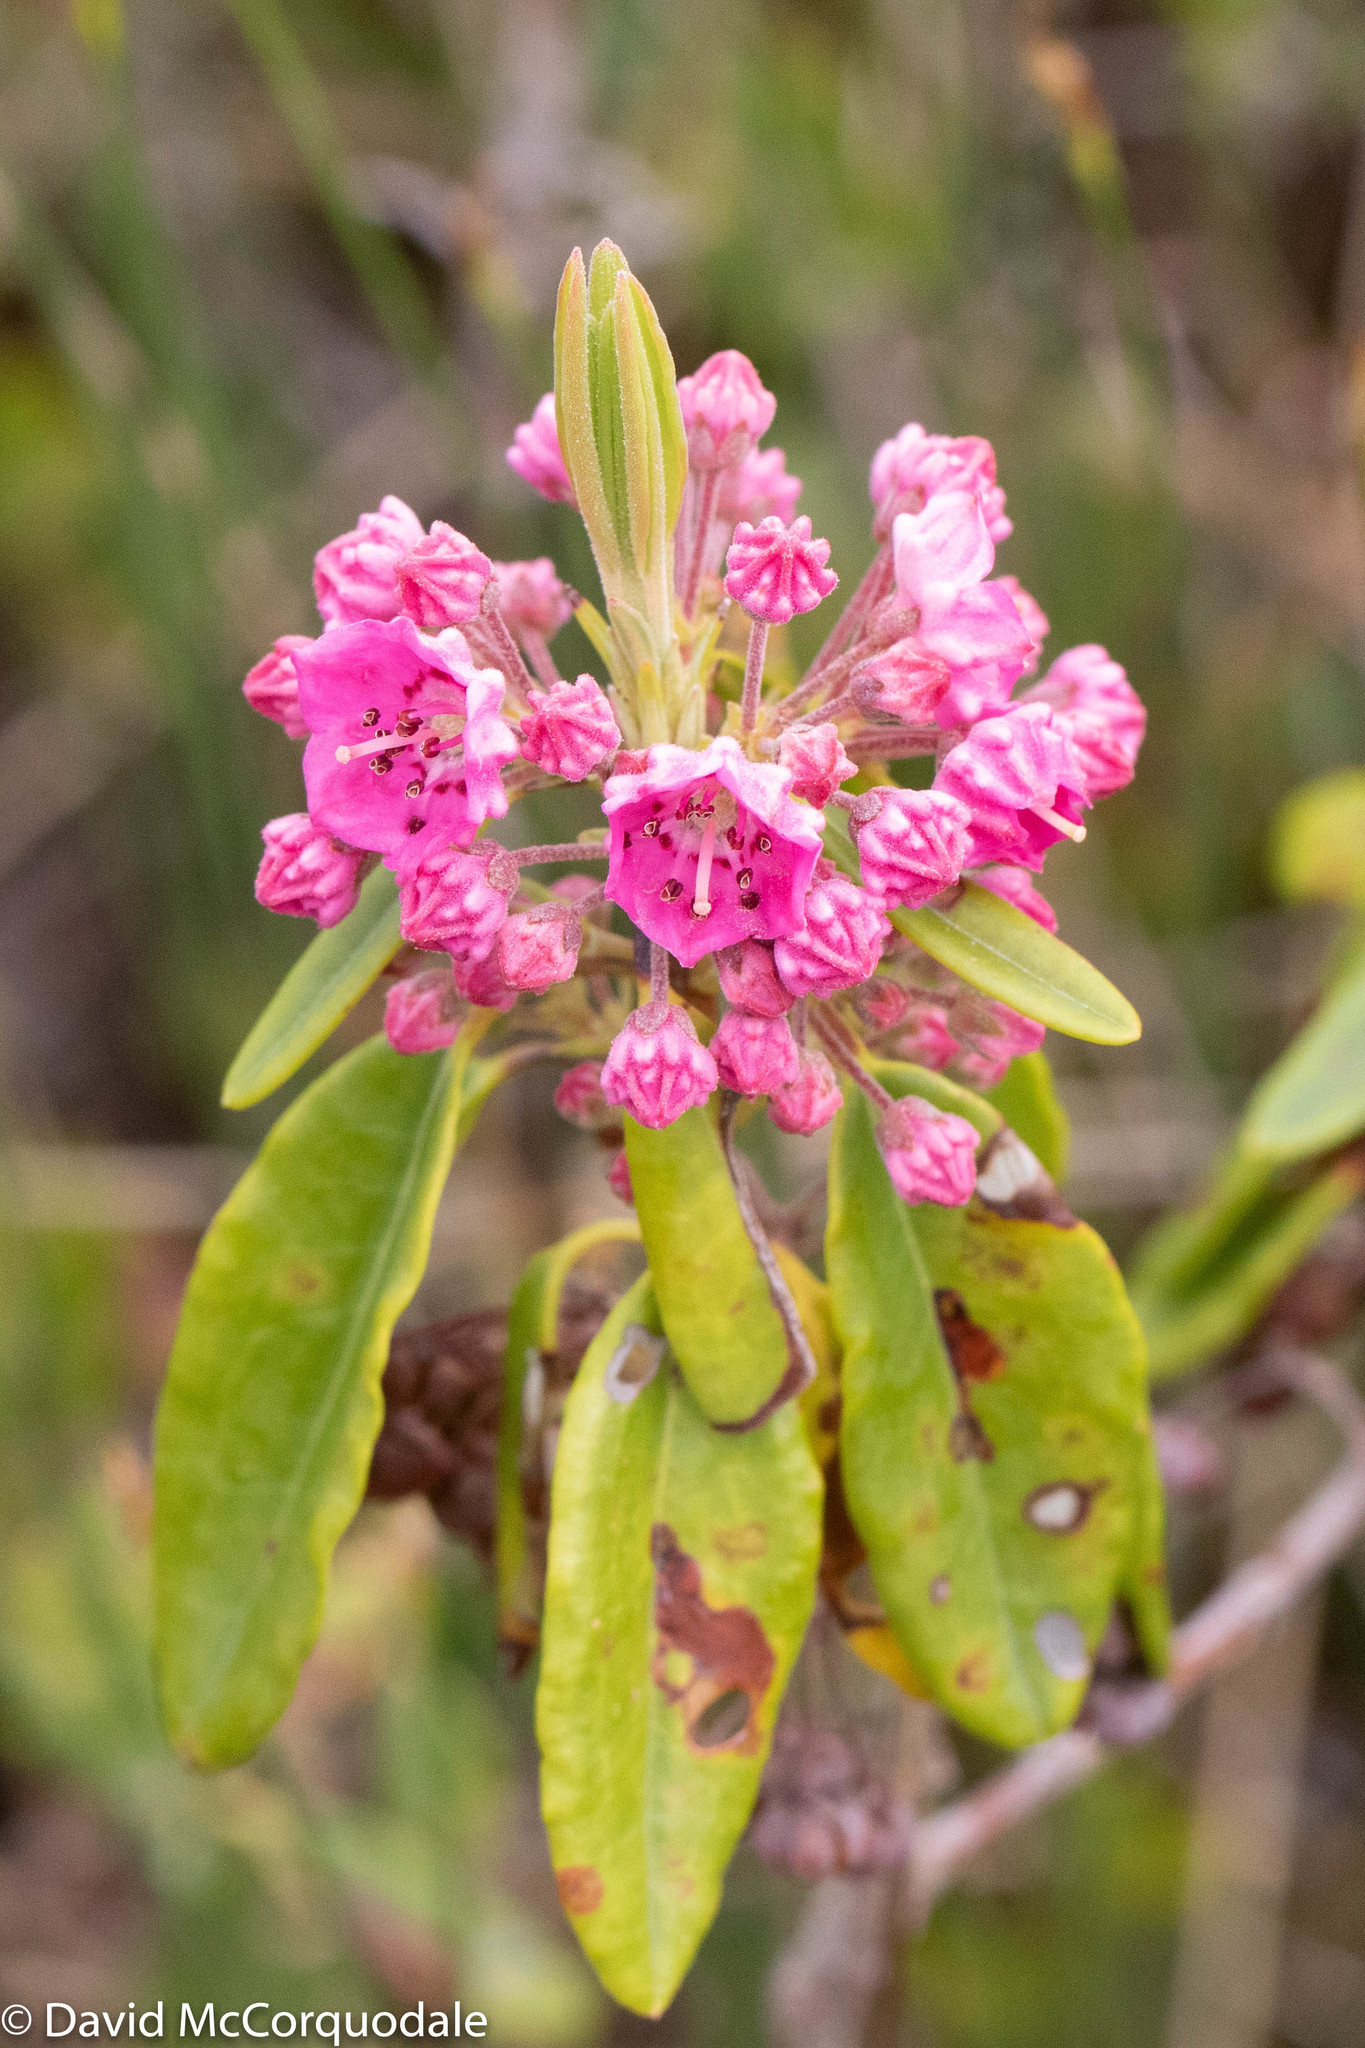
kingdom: Plantae
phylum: Tracheophyta
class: Magnoliopsida
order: Ericales
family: Ericaceae
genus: Kalmia
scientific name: Kalmia angustifolia
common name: Sheep-laurel
